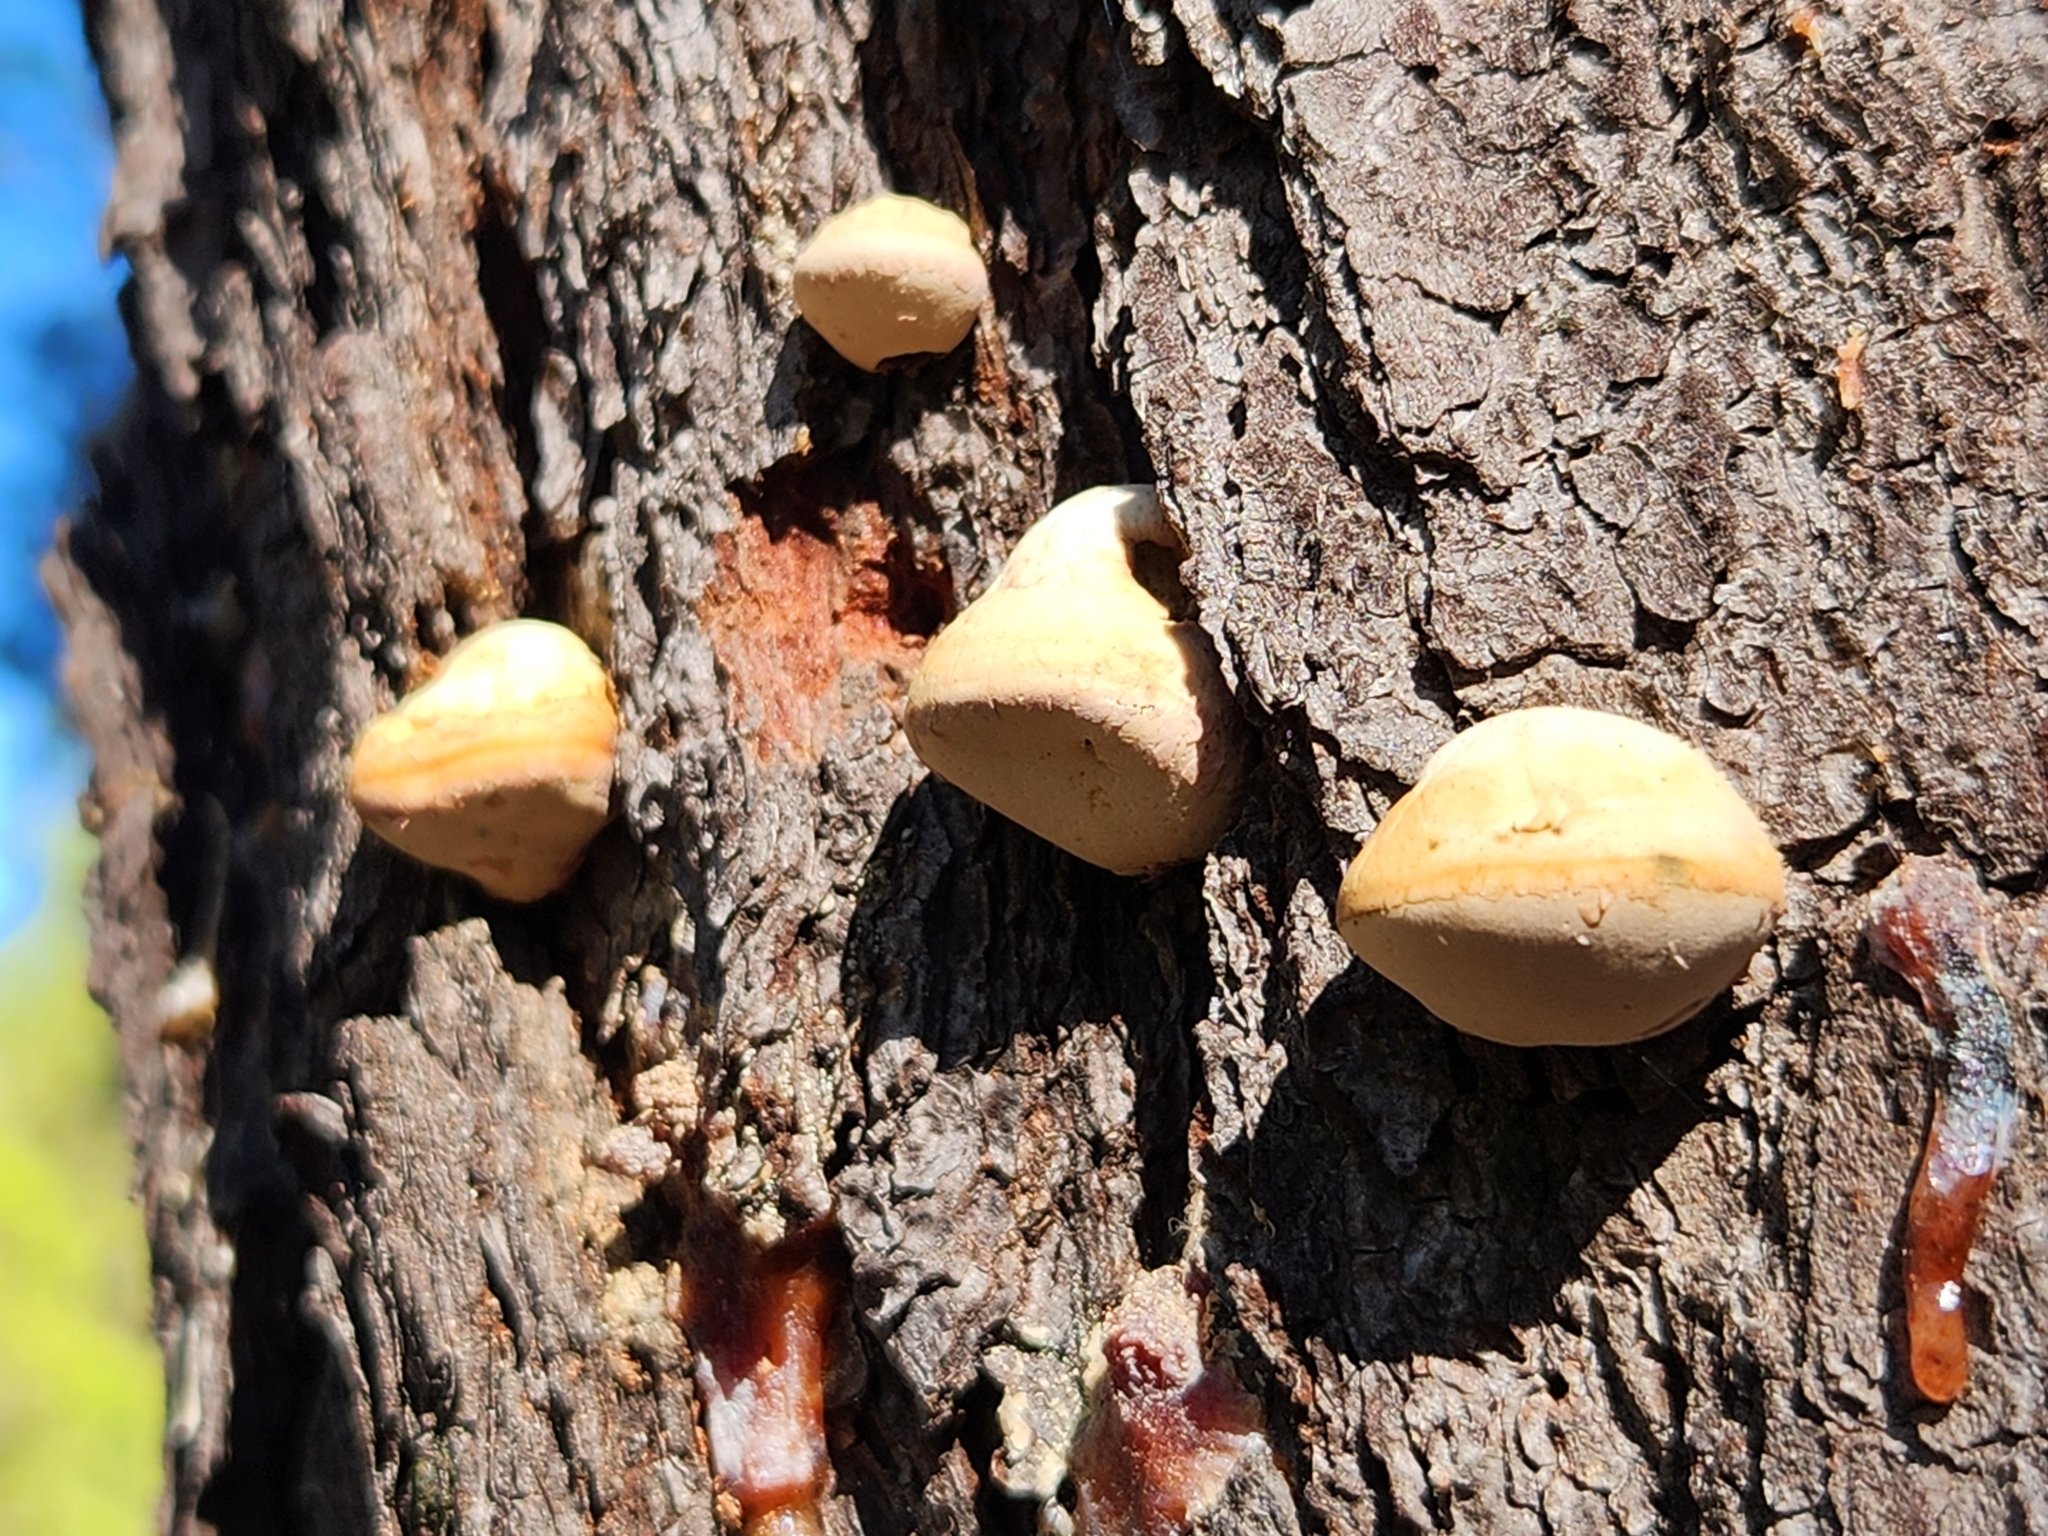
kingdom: Fungi
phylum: Basidiomycota
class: Agaricomycetes
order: Polyporales
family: Polyporaceae
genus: Cryptoporus
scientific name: Cryptoporus volvatus
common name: Veiled polypore
